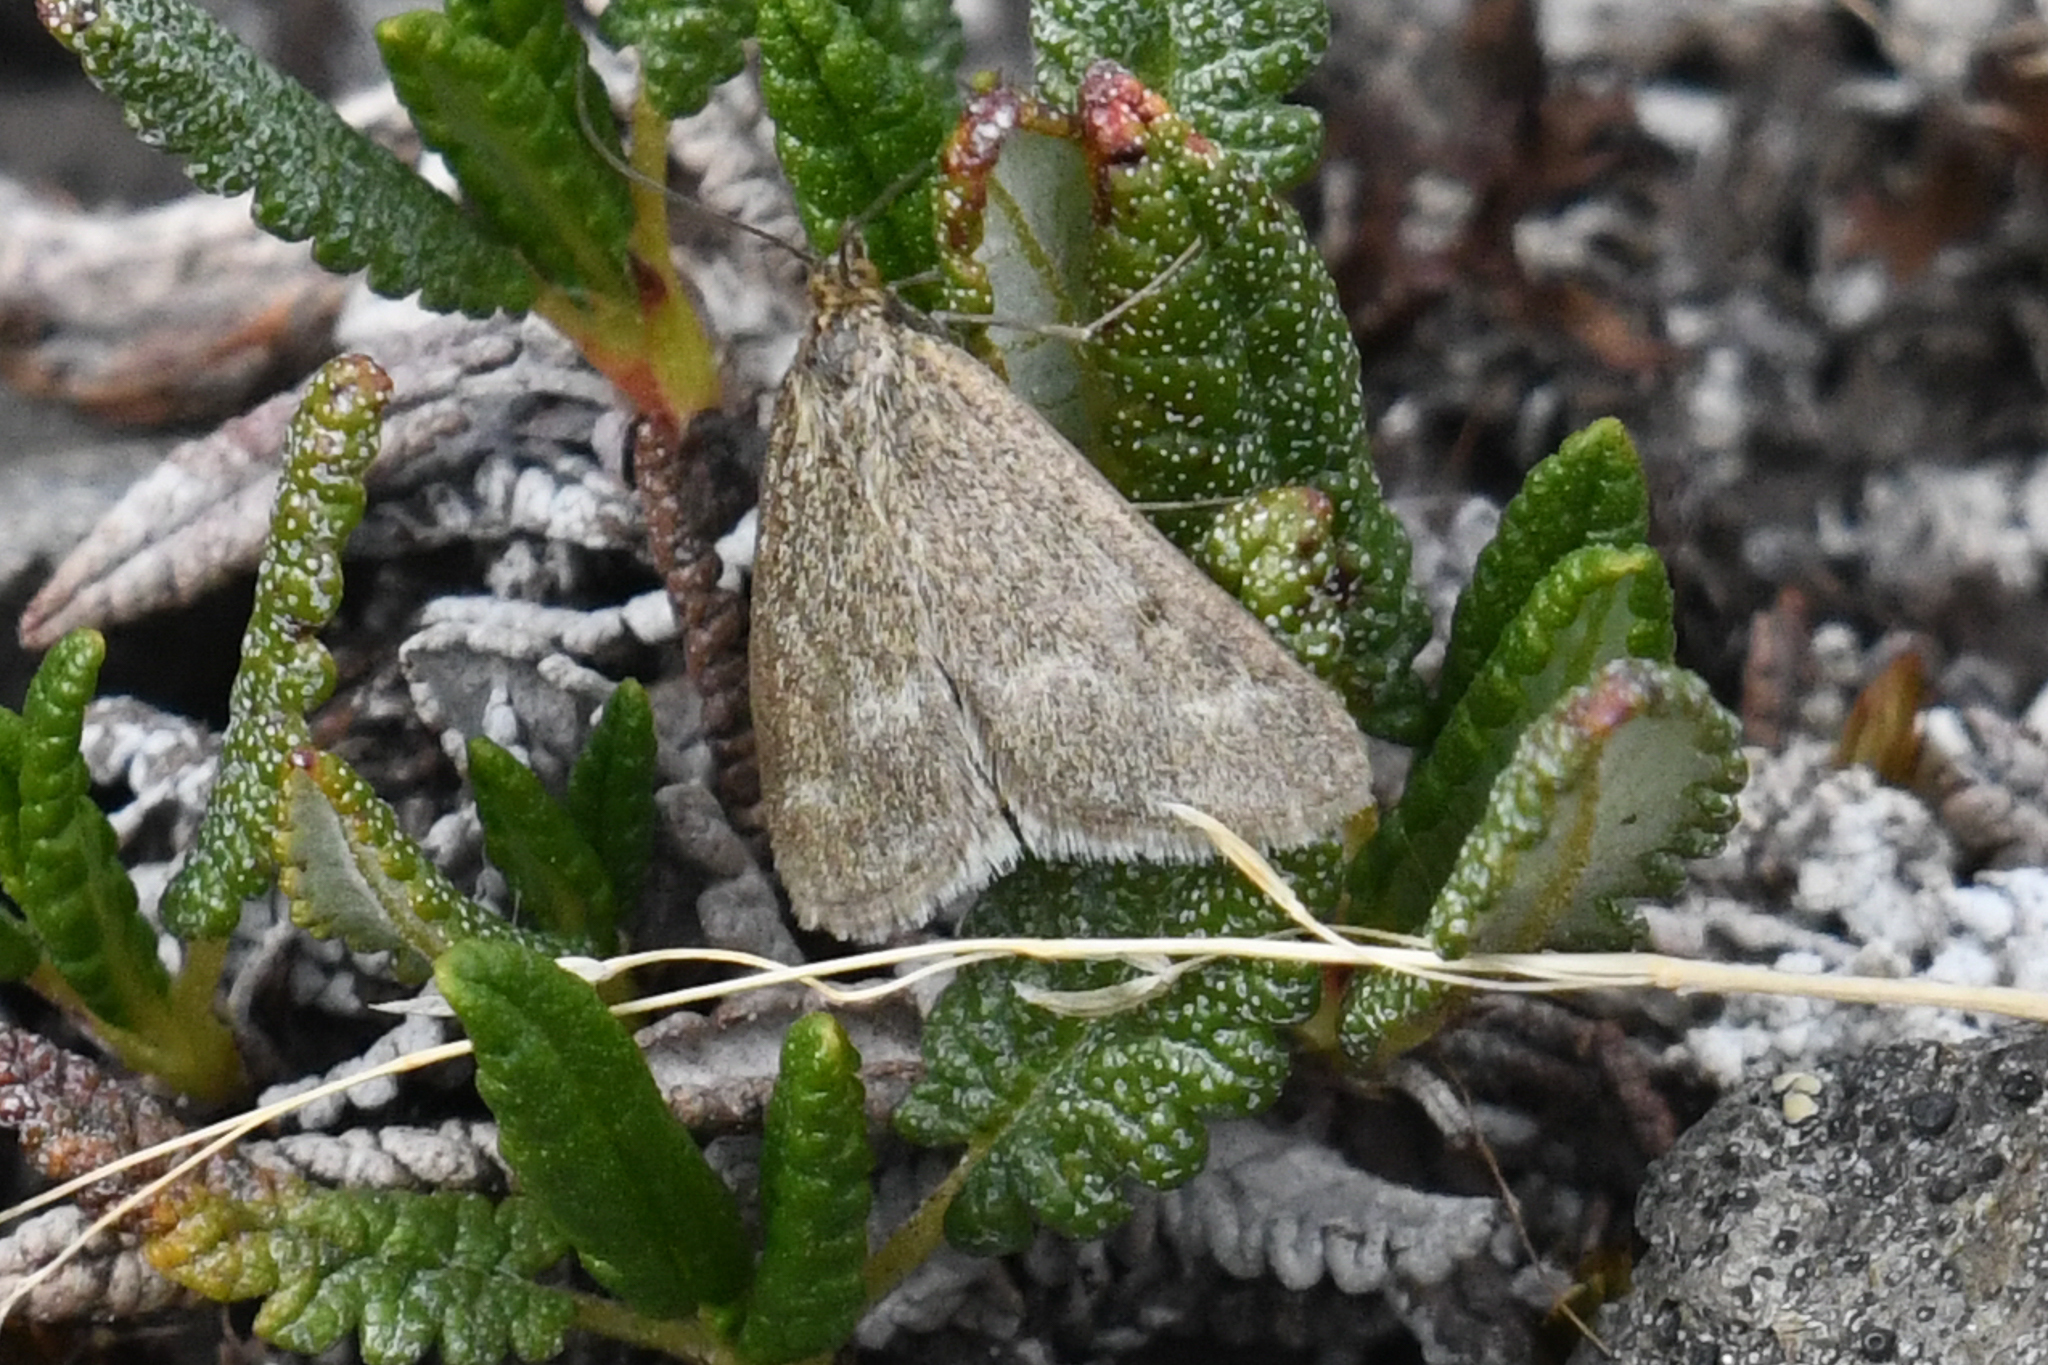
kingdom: Animalia
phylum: Arthropoda
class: Insecta
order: Lepidoptera
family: Crambidae
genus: Pyrausta
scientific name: Pyrausta unifascialis
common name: One-banded pyrausta
